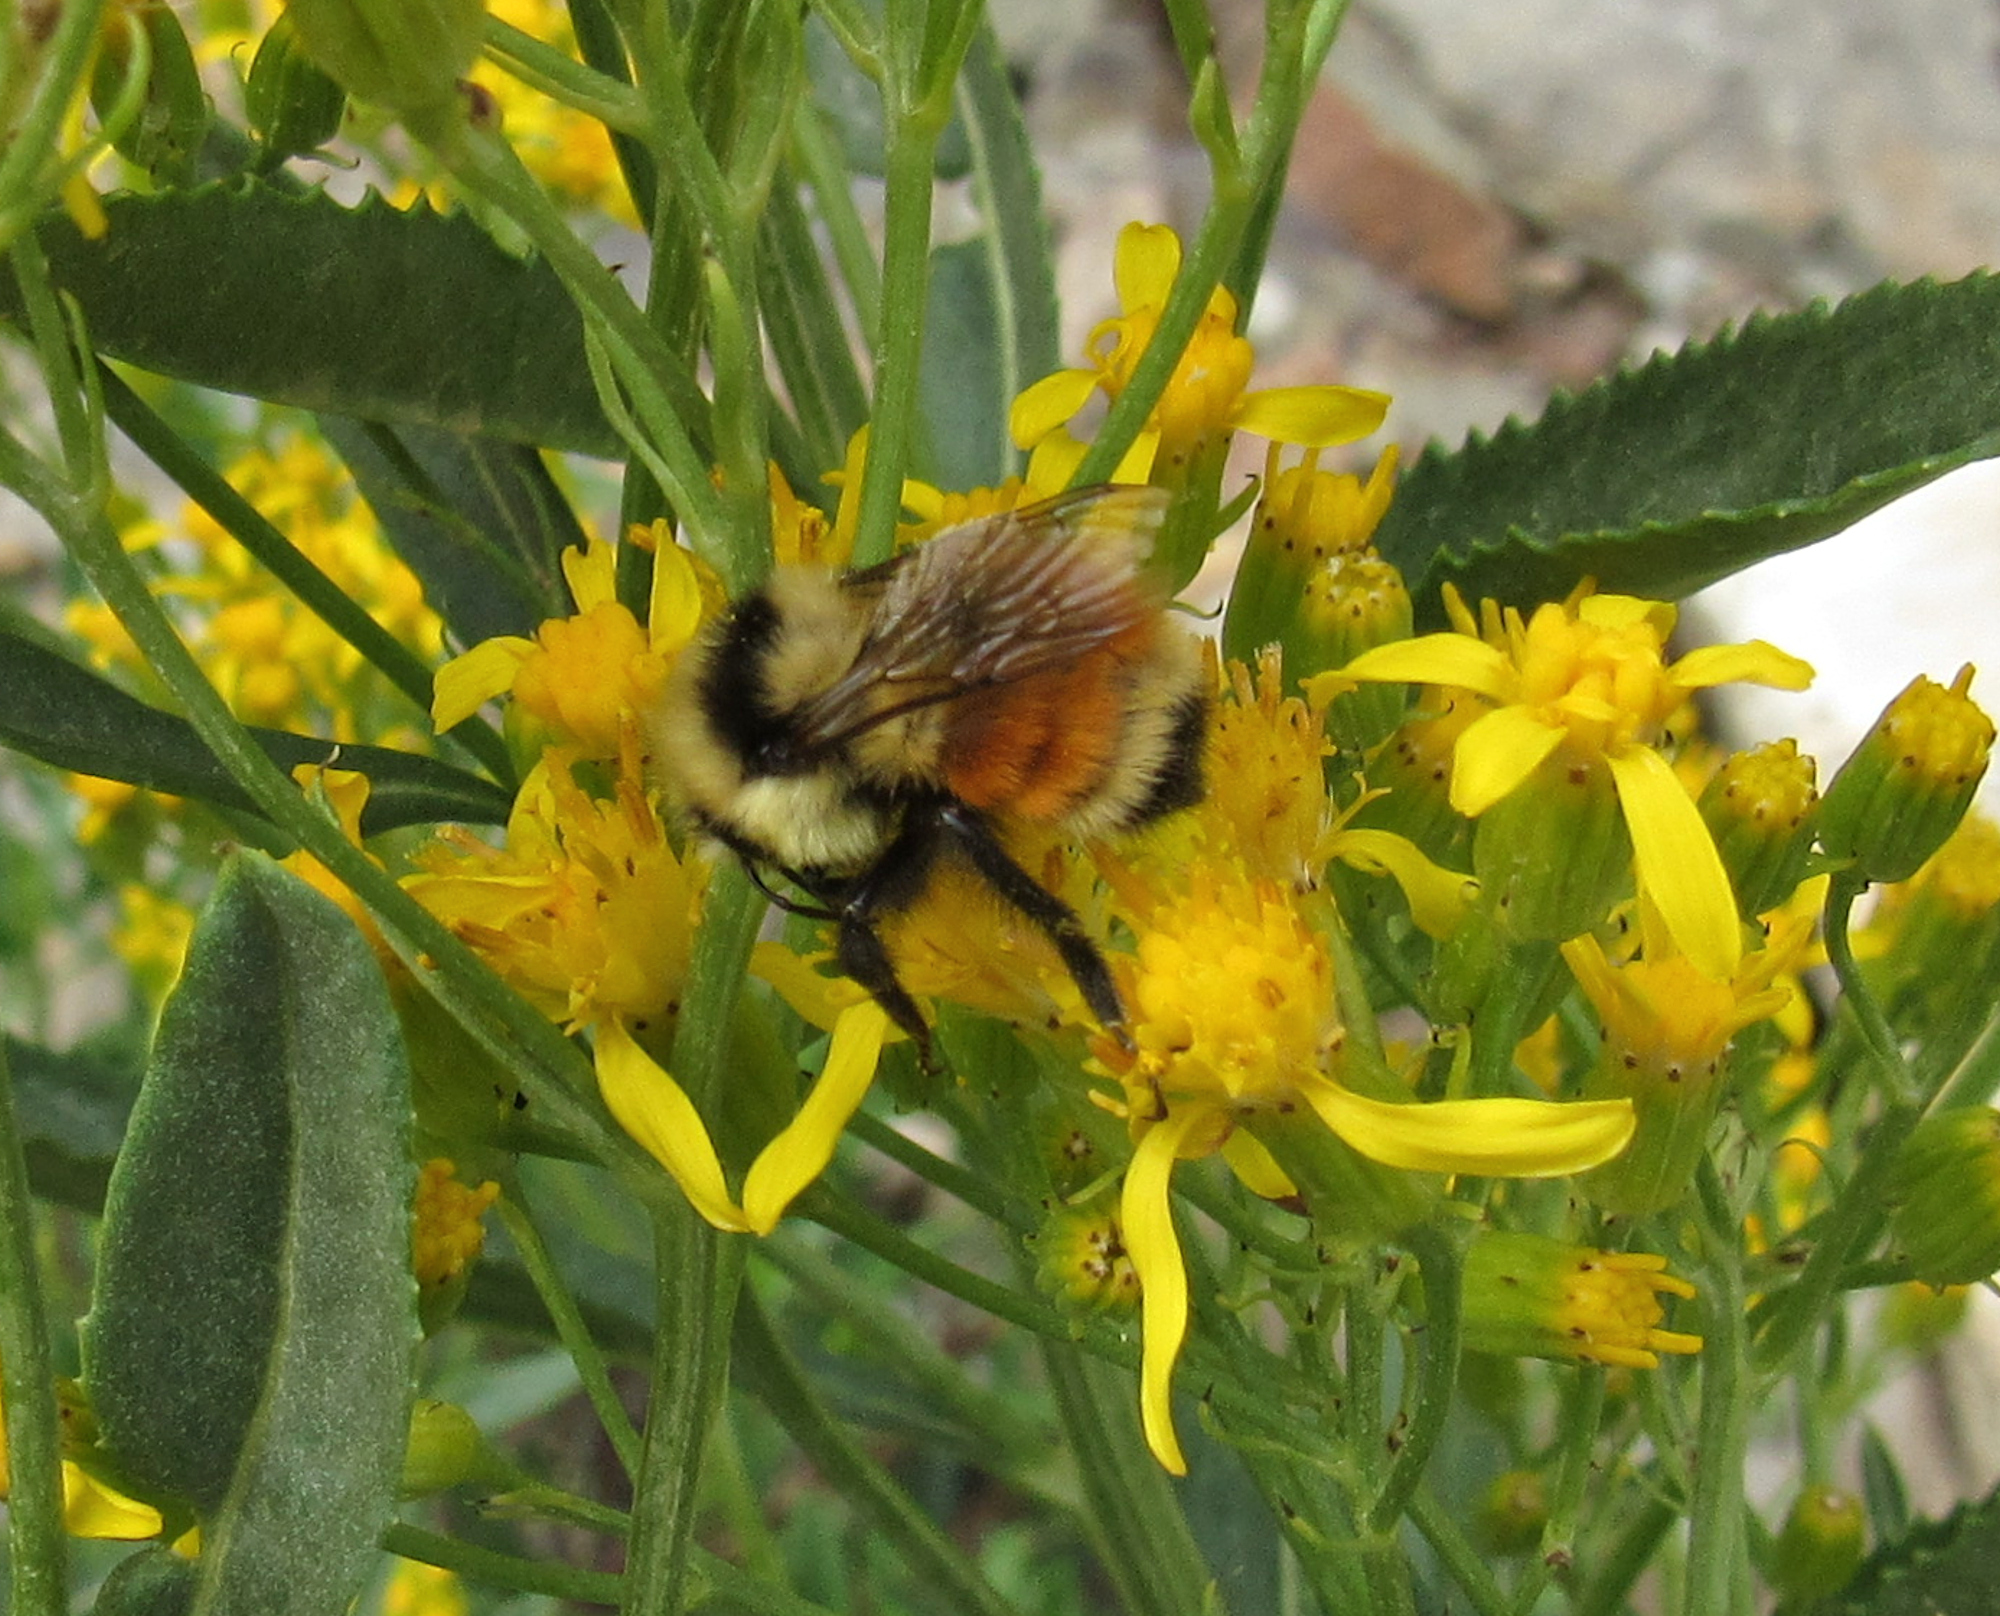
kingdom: Animalia
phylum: Arthropoda
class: Insecta
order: Hymenoptera
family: Apidae
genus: Bombus
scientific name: Bombus huntii
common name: Hunt bumble bee
